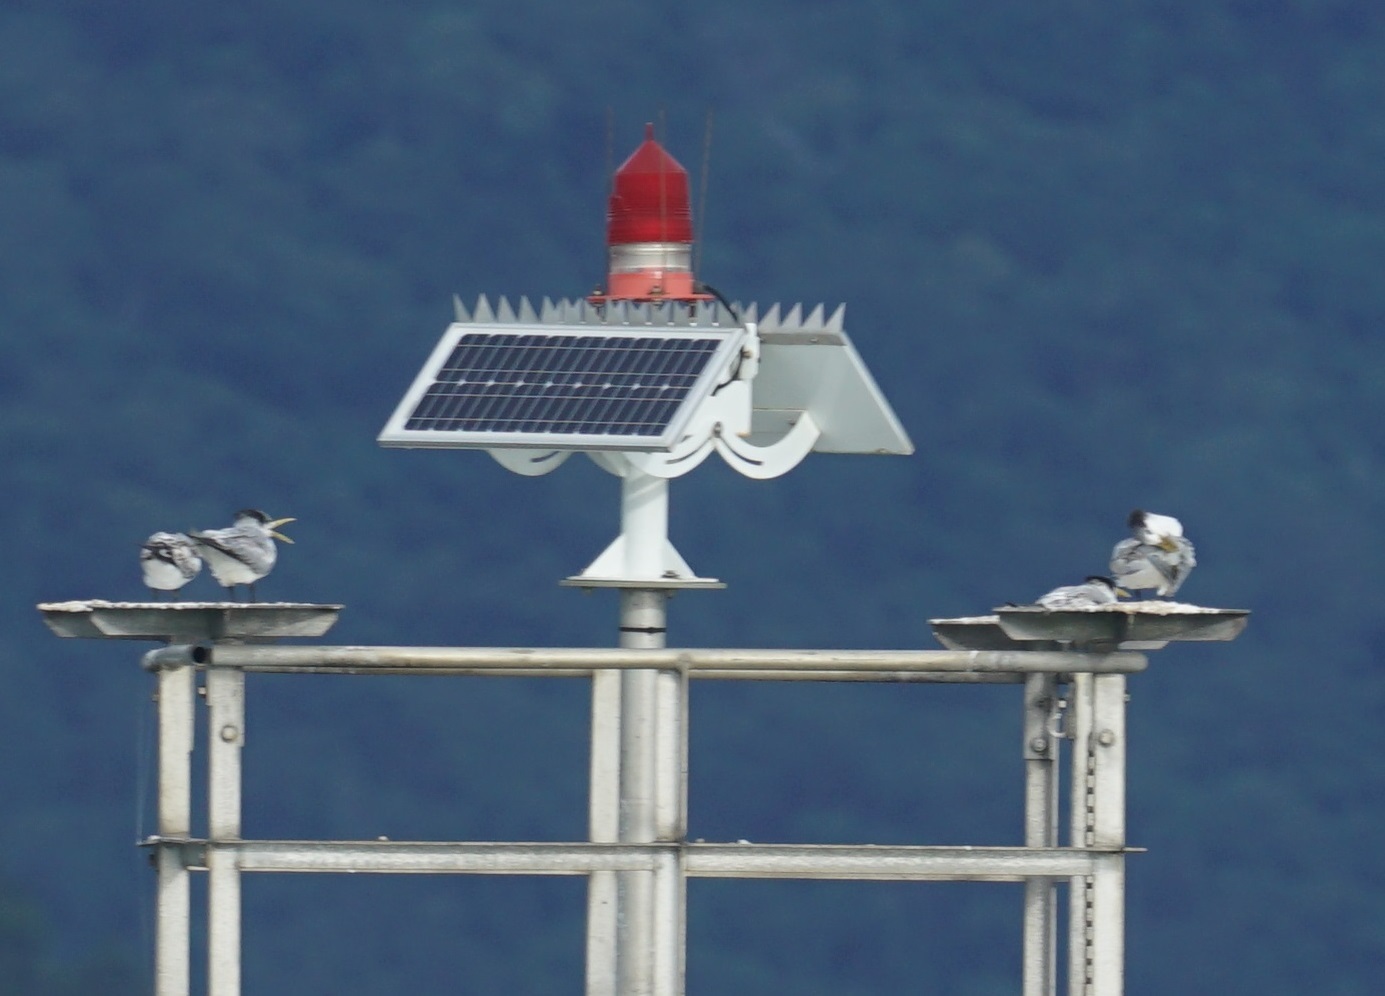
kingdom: Animalia
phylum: Chordata
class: Aves
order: Charadriiformes
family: Laridae
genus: Thalasseus
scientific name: Thalasseus bergii
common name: Greater crested tern
